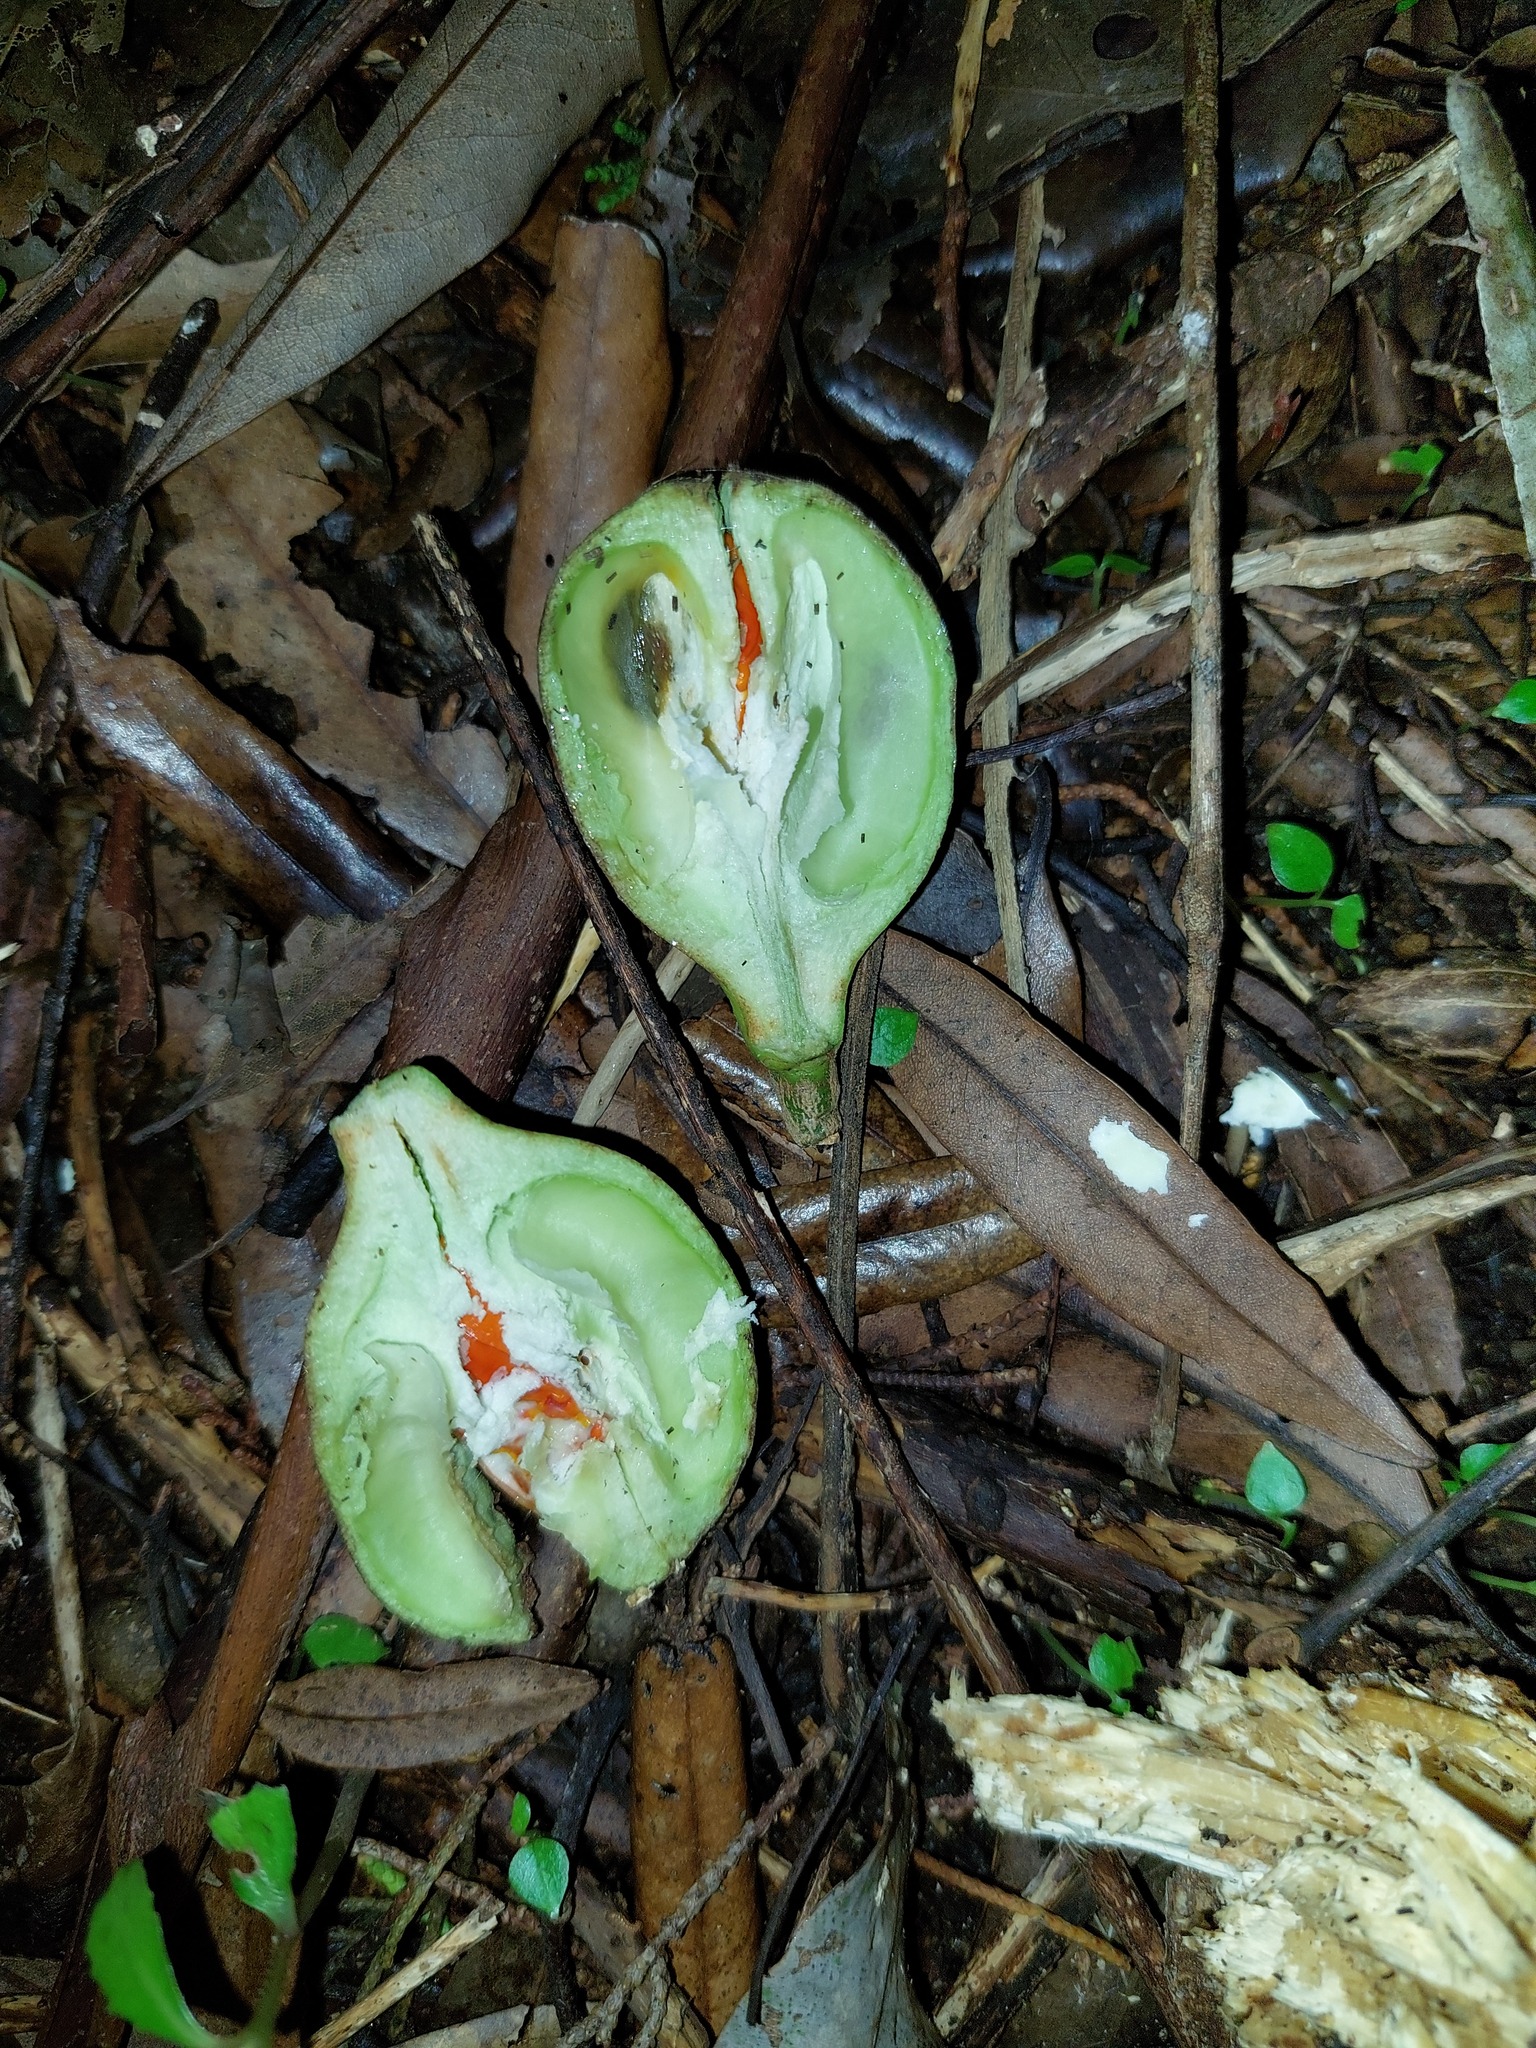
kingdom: Plantae
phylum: Tracheophyta
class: Magnoliopsida
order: Sapindales
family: Meliaceae
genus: Didymocheton
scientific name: Didymocheton spectabilis
